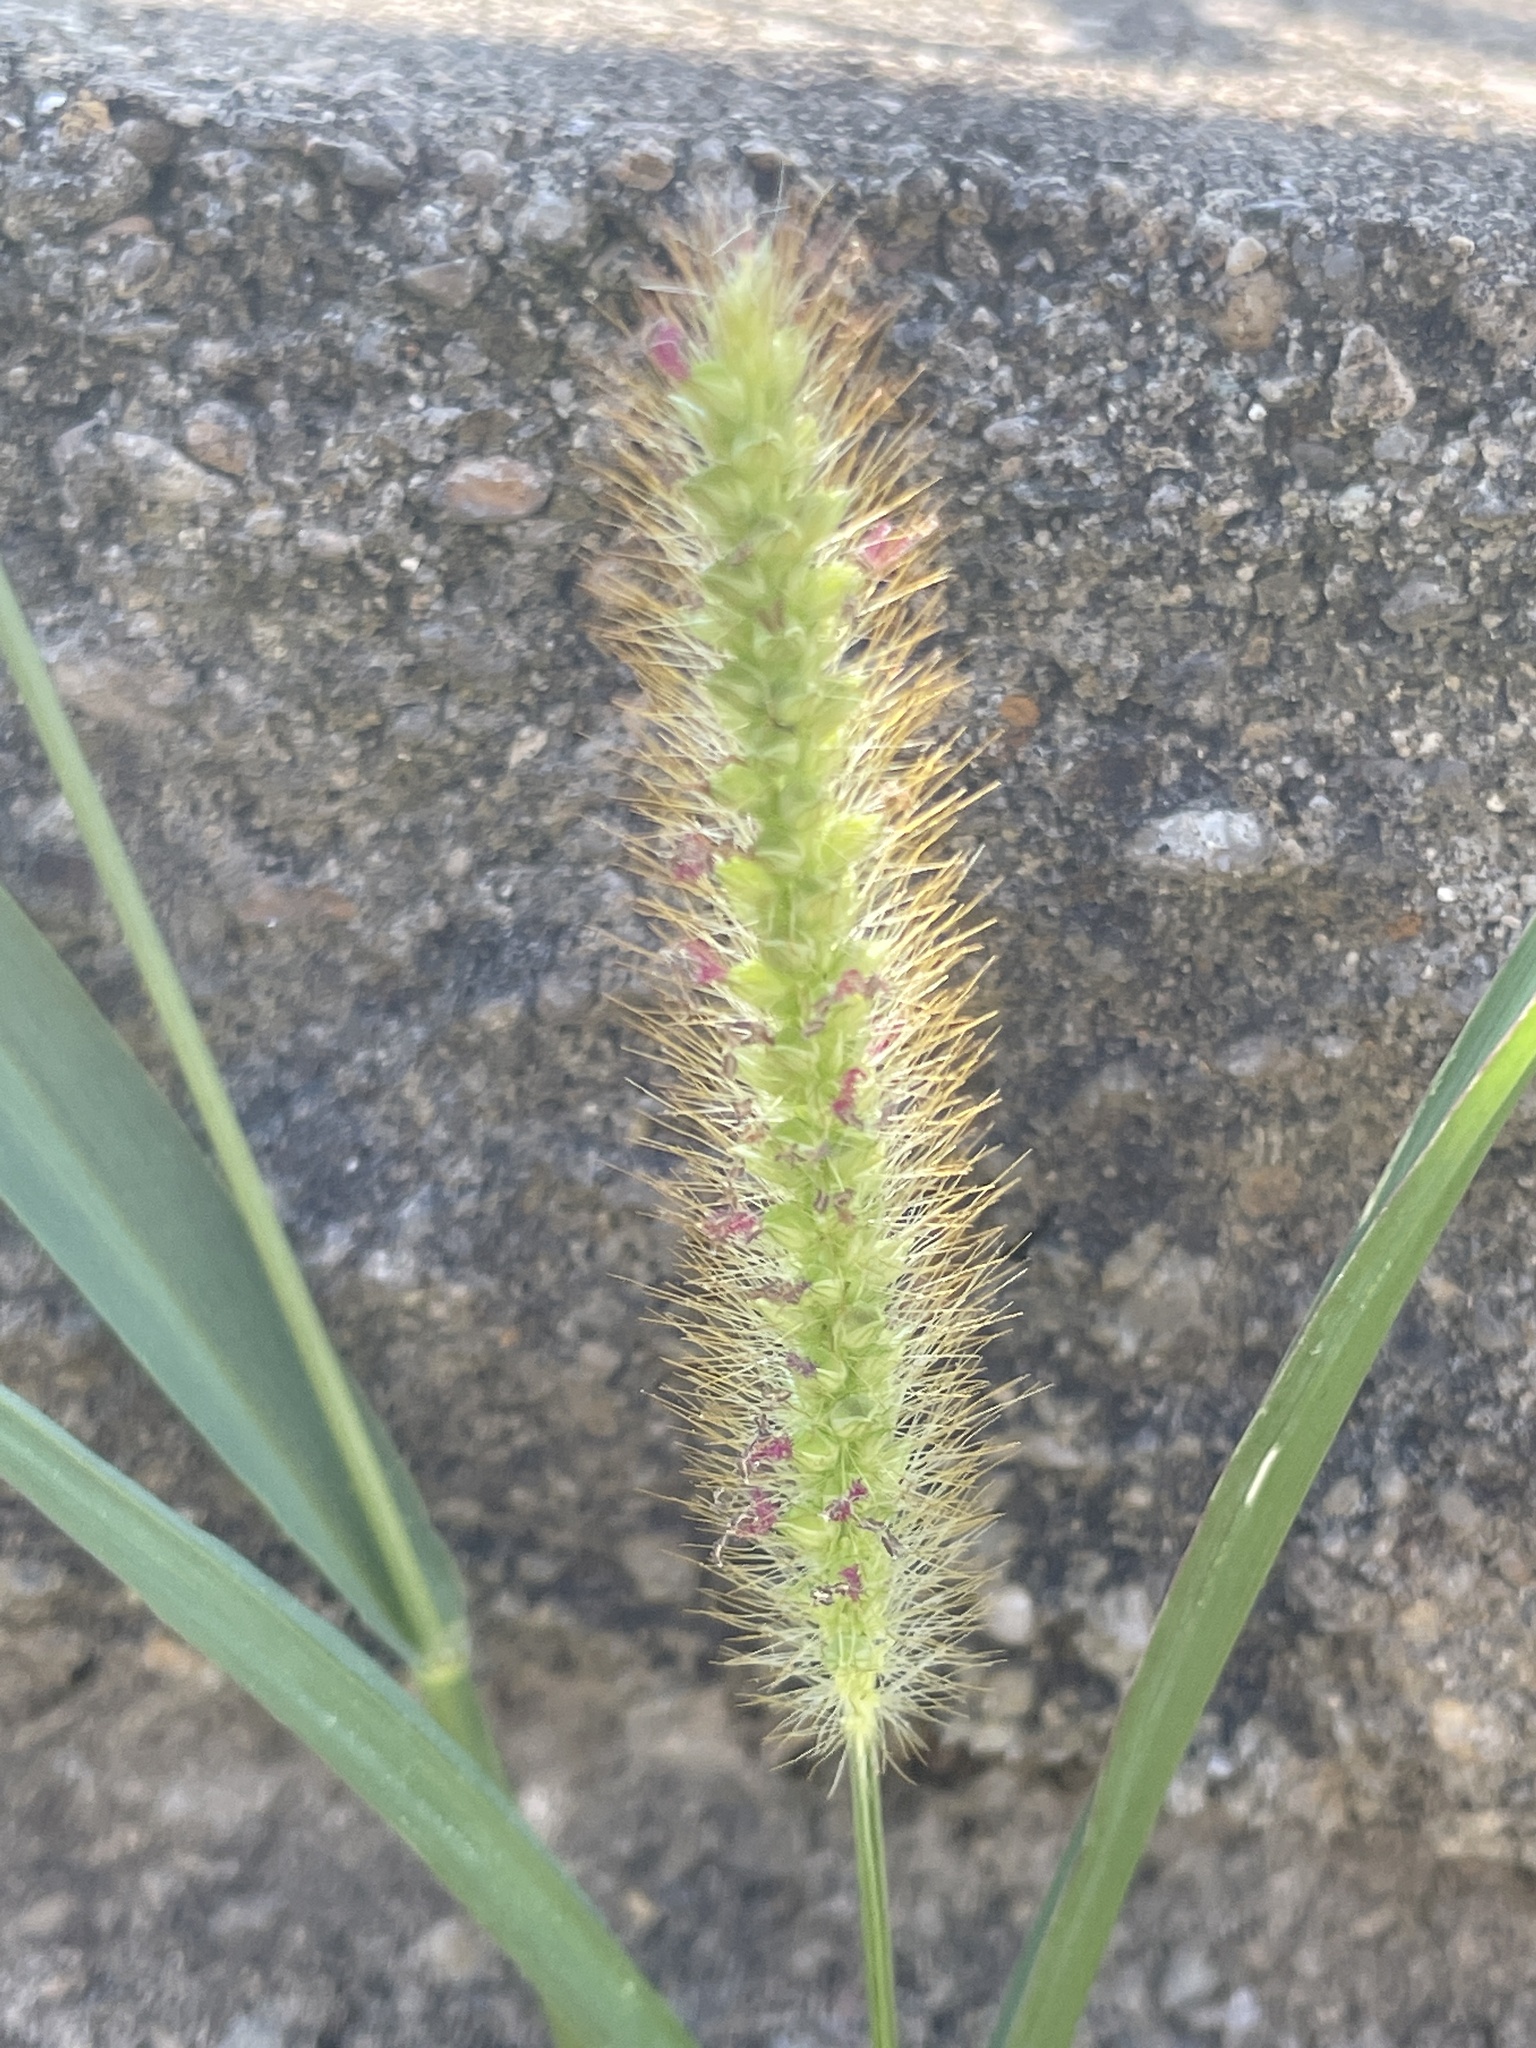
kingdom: Plantae
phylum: Tracheophyta
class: Liliopsida
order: Poales
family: Poaceae
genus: Setaria
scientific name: Setaria pumila
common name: Yellow bristle-grass
